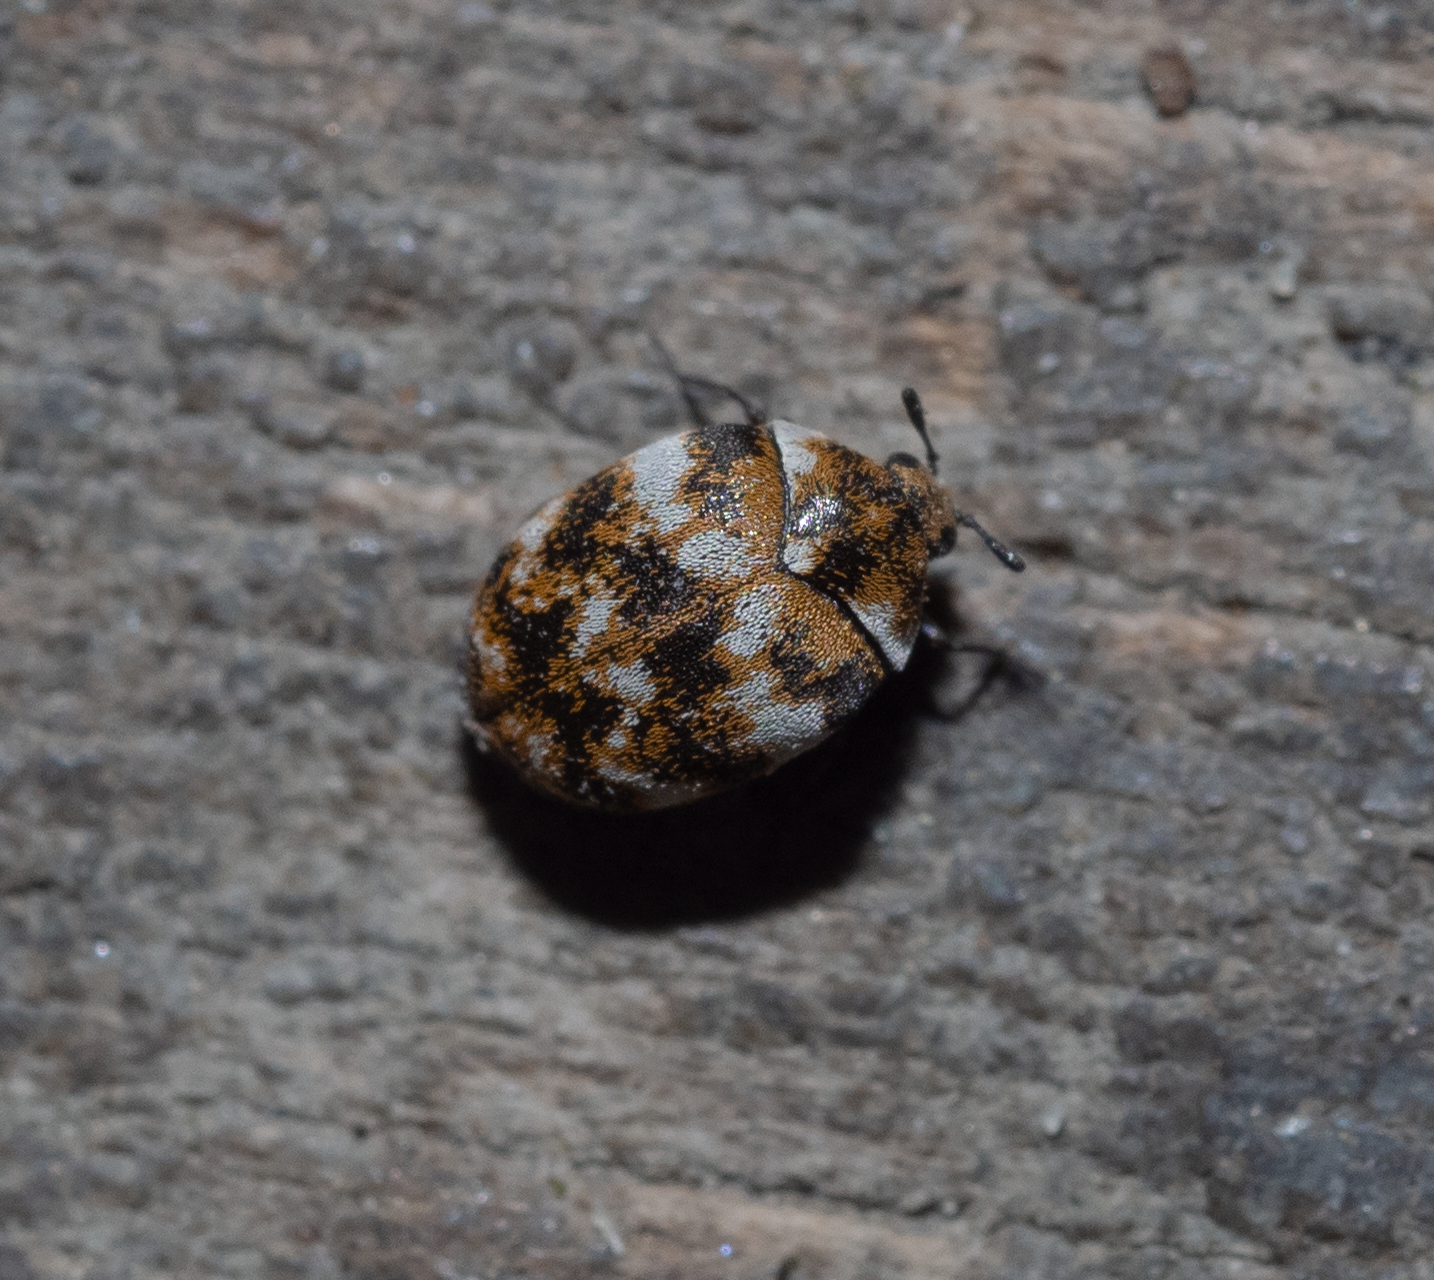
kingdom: Animalia
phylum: Arthropoda
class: Insecta
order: Coleoptera
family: Dermestidae
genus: Anthrenus
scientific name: Anthrenus verbasci
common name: Varied carpet beetle
